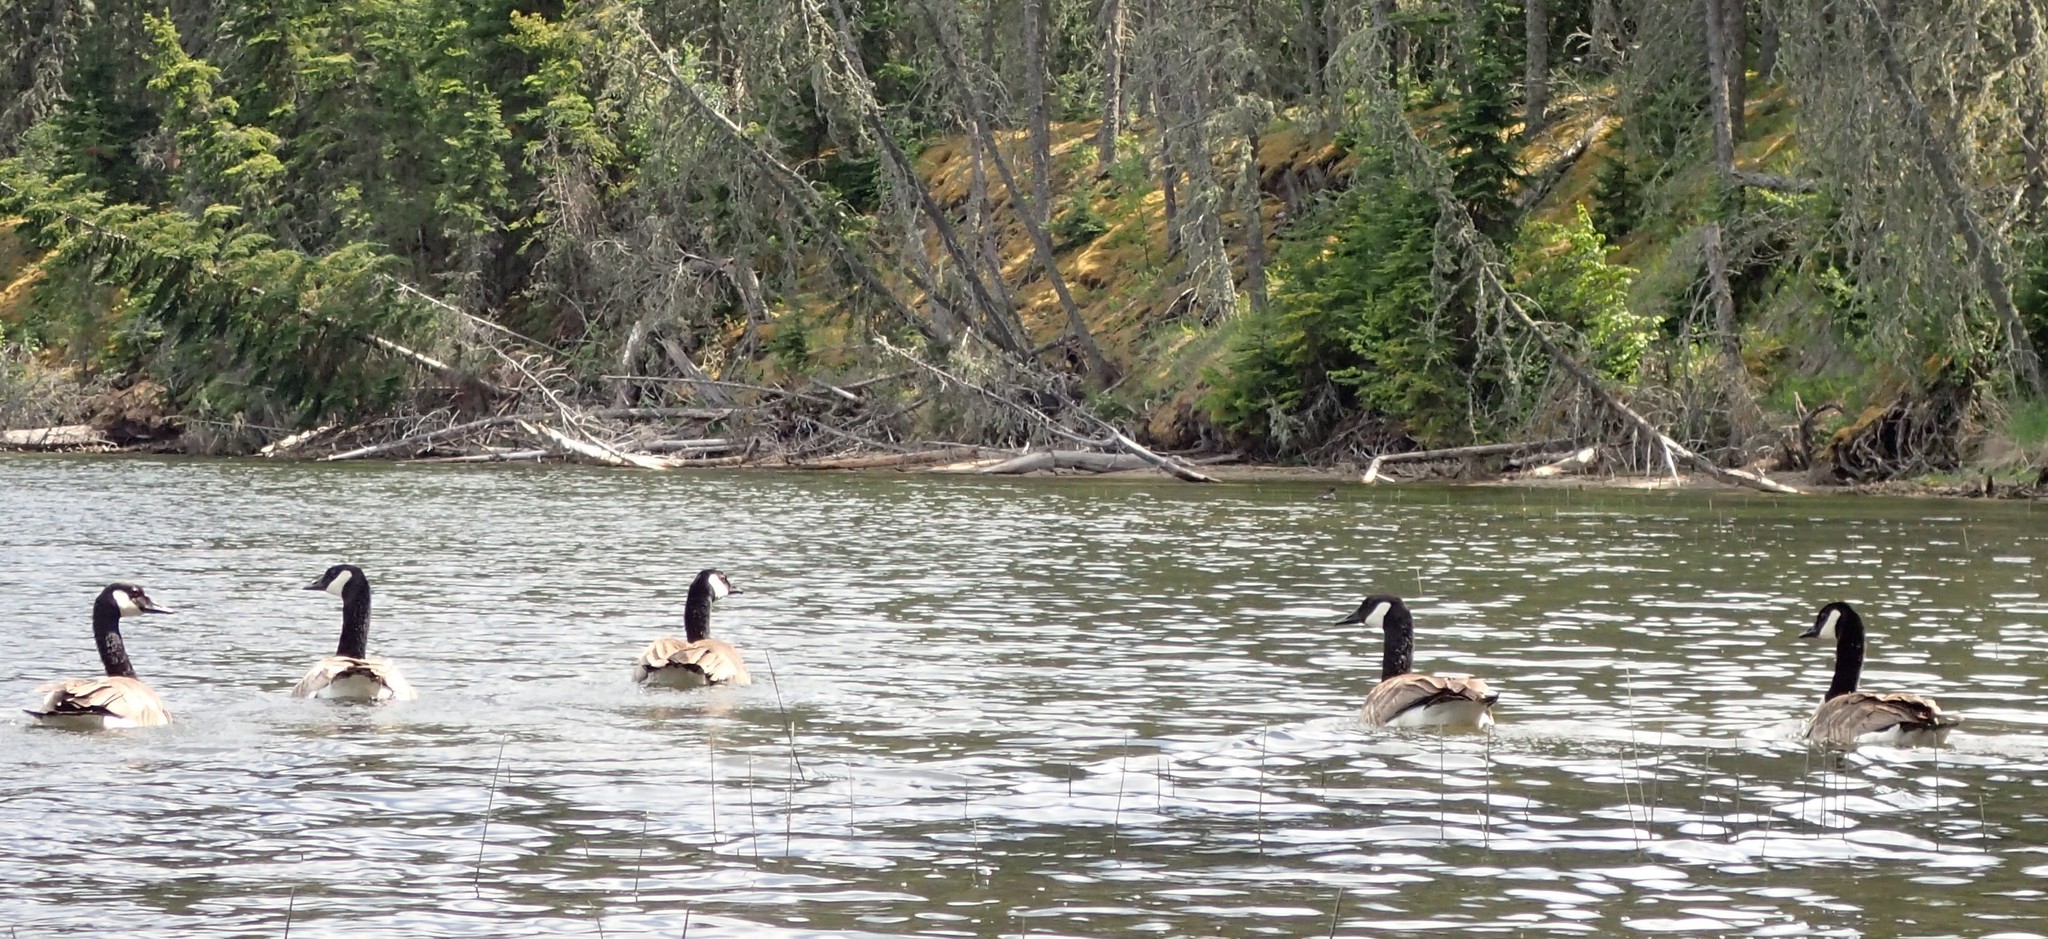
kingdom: Animalia
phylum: Chordata
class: Aves
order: Anseriformes
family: Anatidae
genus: Branta
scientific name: Branta canadensis
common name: Canada goose
